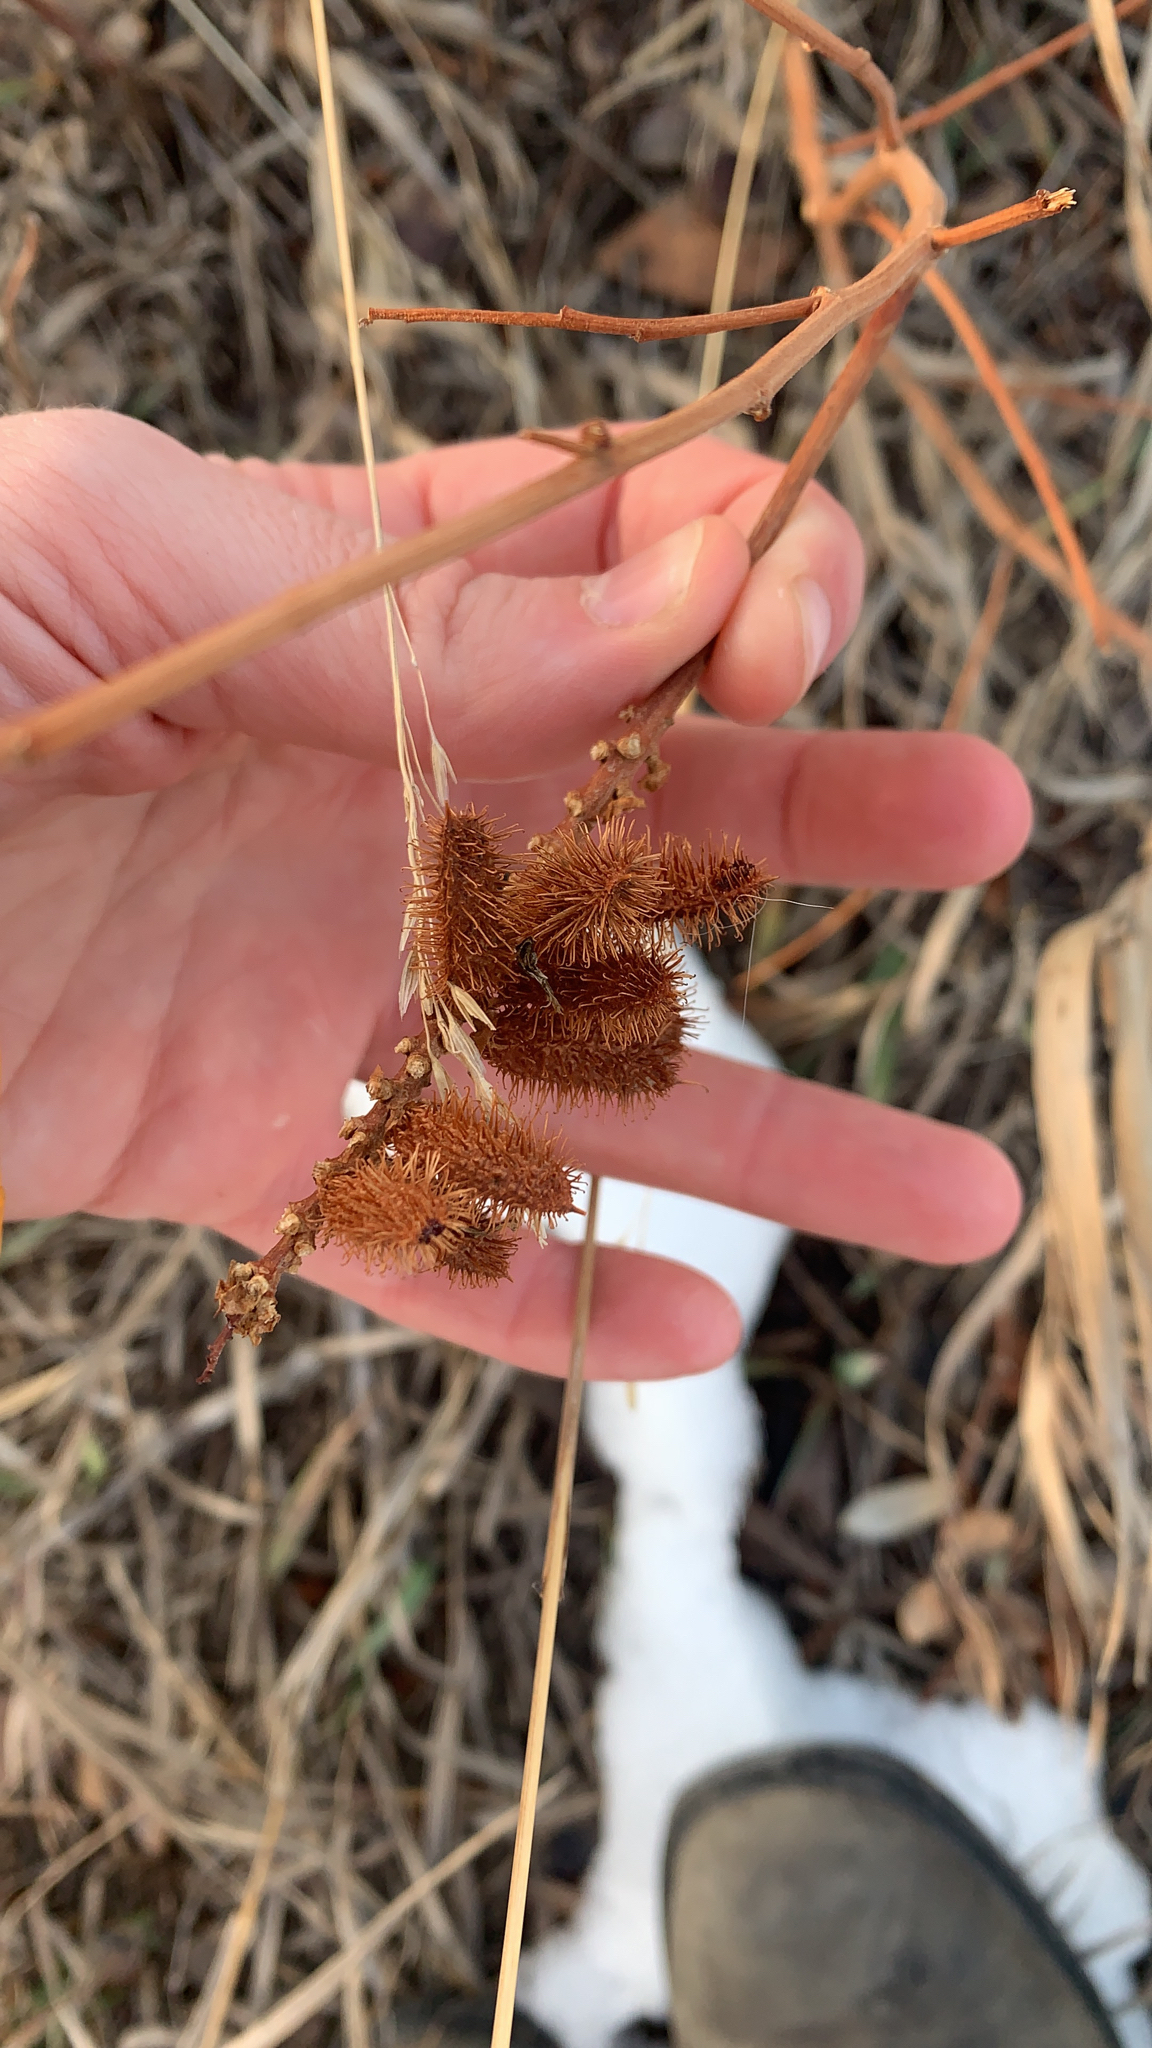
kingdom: Plantae
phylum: Tracheophyta
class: Magnoliopsida
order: Fabales
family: Fabaceae
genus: Glycyrrhiza
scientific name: Glycyrrhiza lepidota
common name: American liquorice
